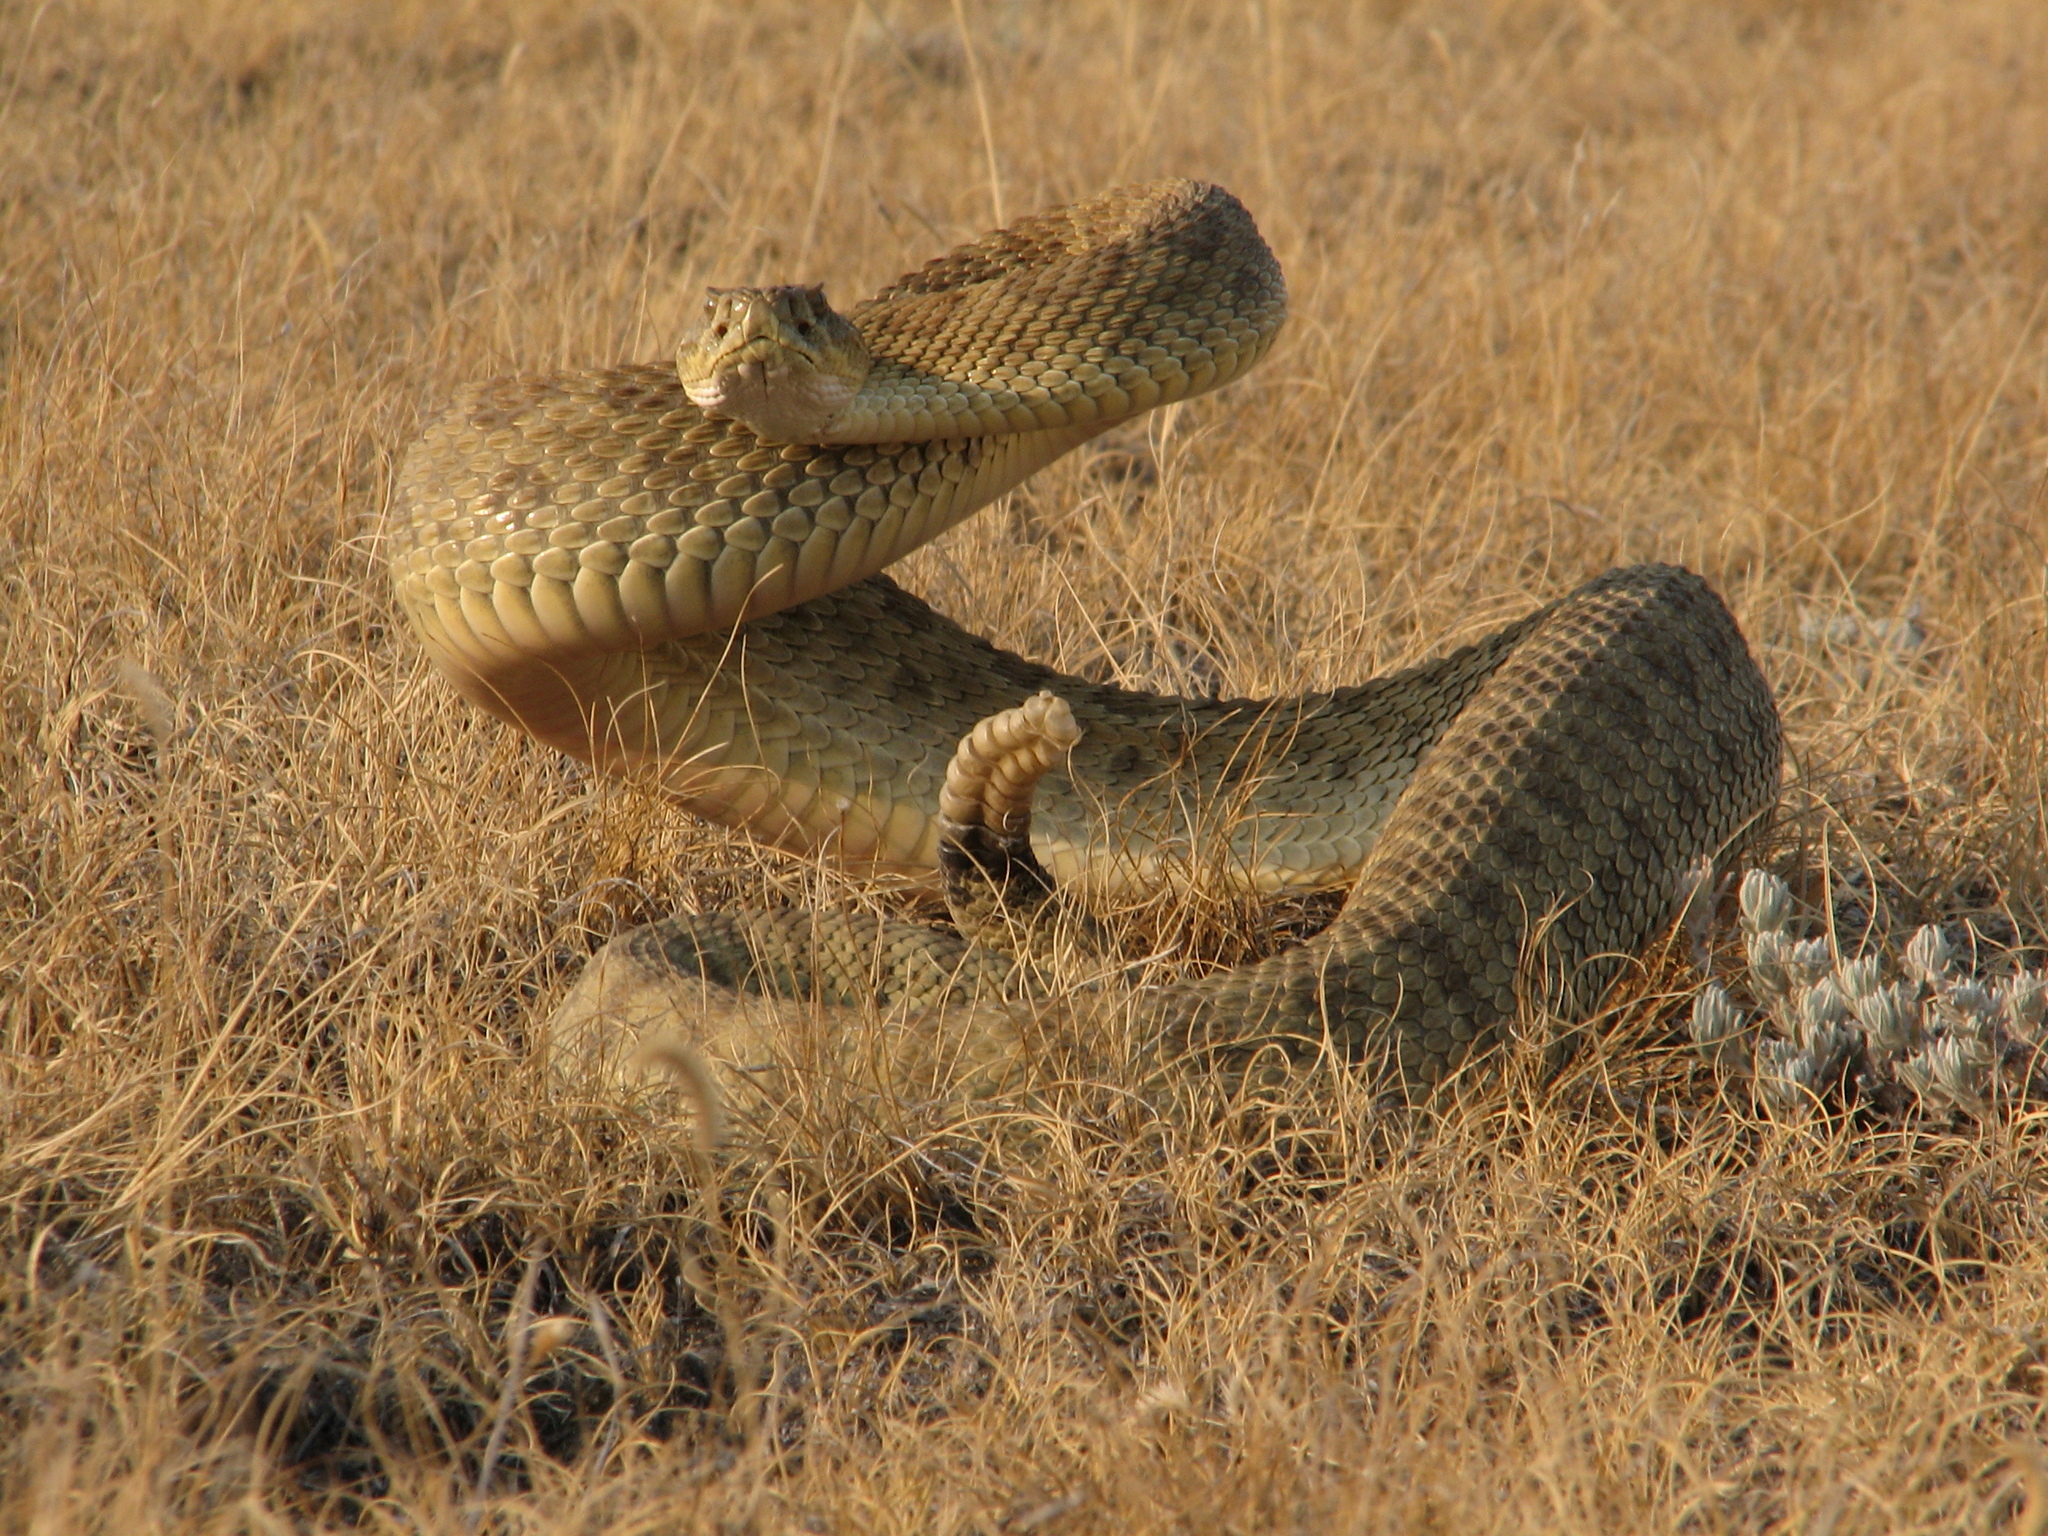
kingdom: Animalia
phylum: Chordata
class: Squamata
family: Viperidae
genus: Crotalus
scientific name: Crotalus viridis
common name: Prairie rattlesnake
